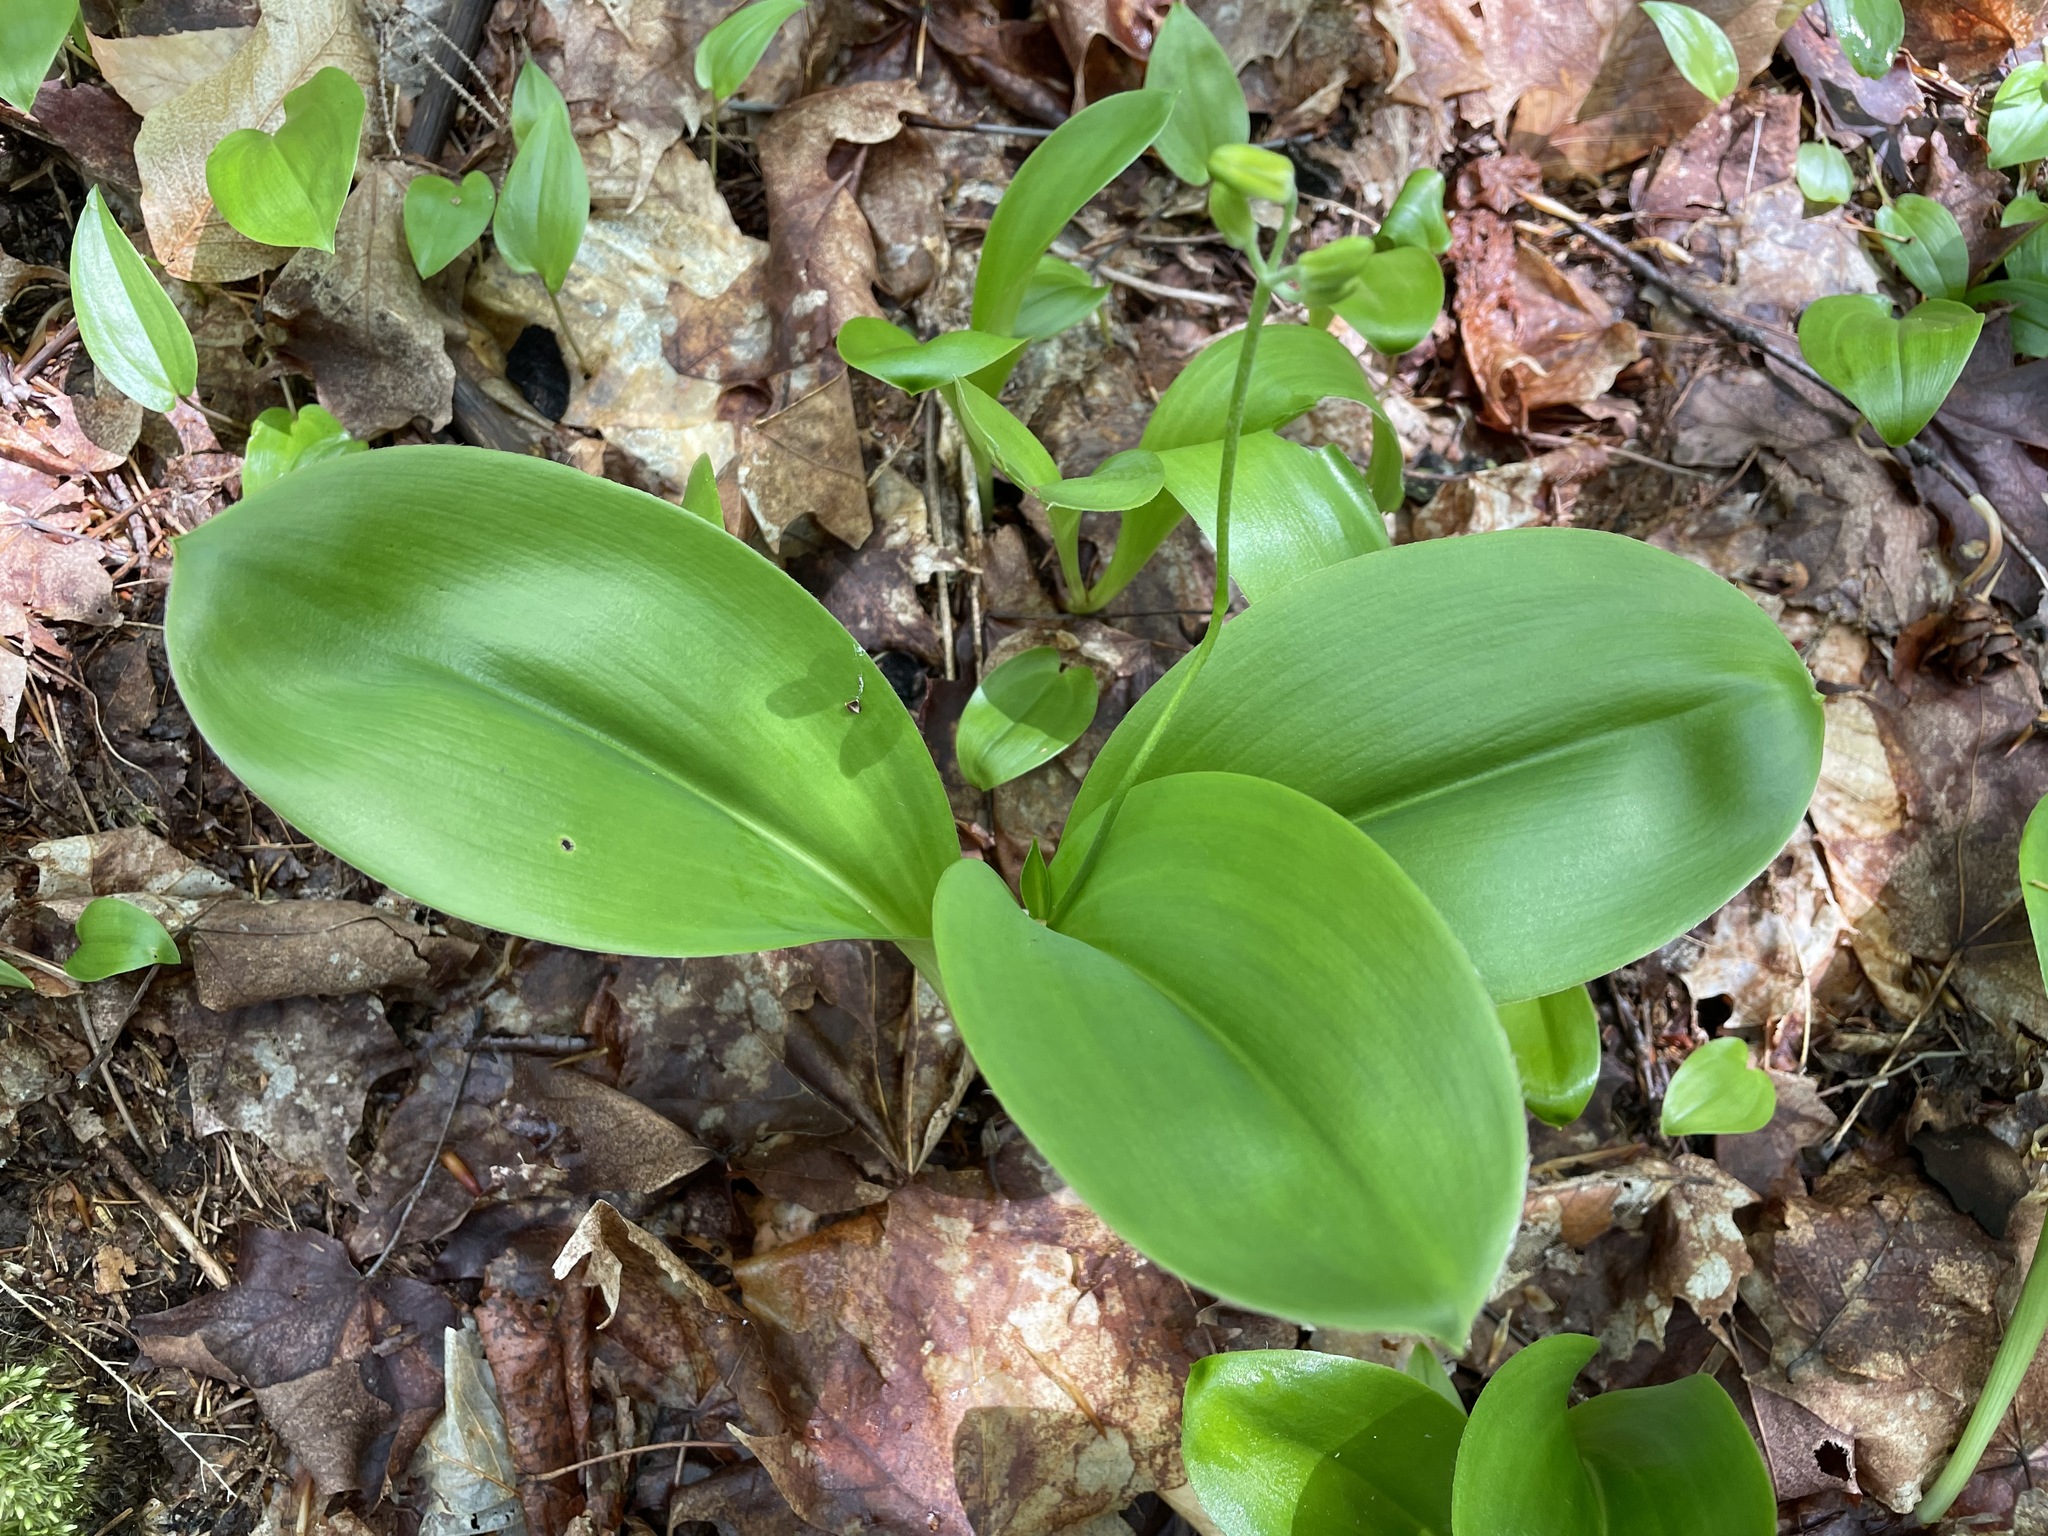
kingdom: Plantae
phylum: Tracheophyta
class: Liliopsida
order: Liliales
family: Liliaceae
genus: Clintonia
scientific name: Clintonia borealis
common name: Yellow clintonia
